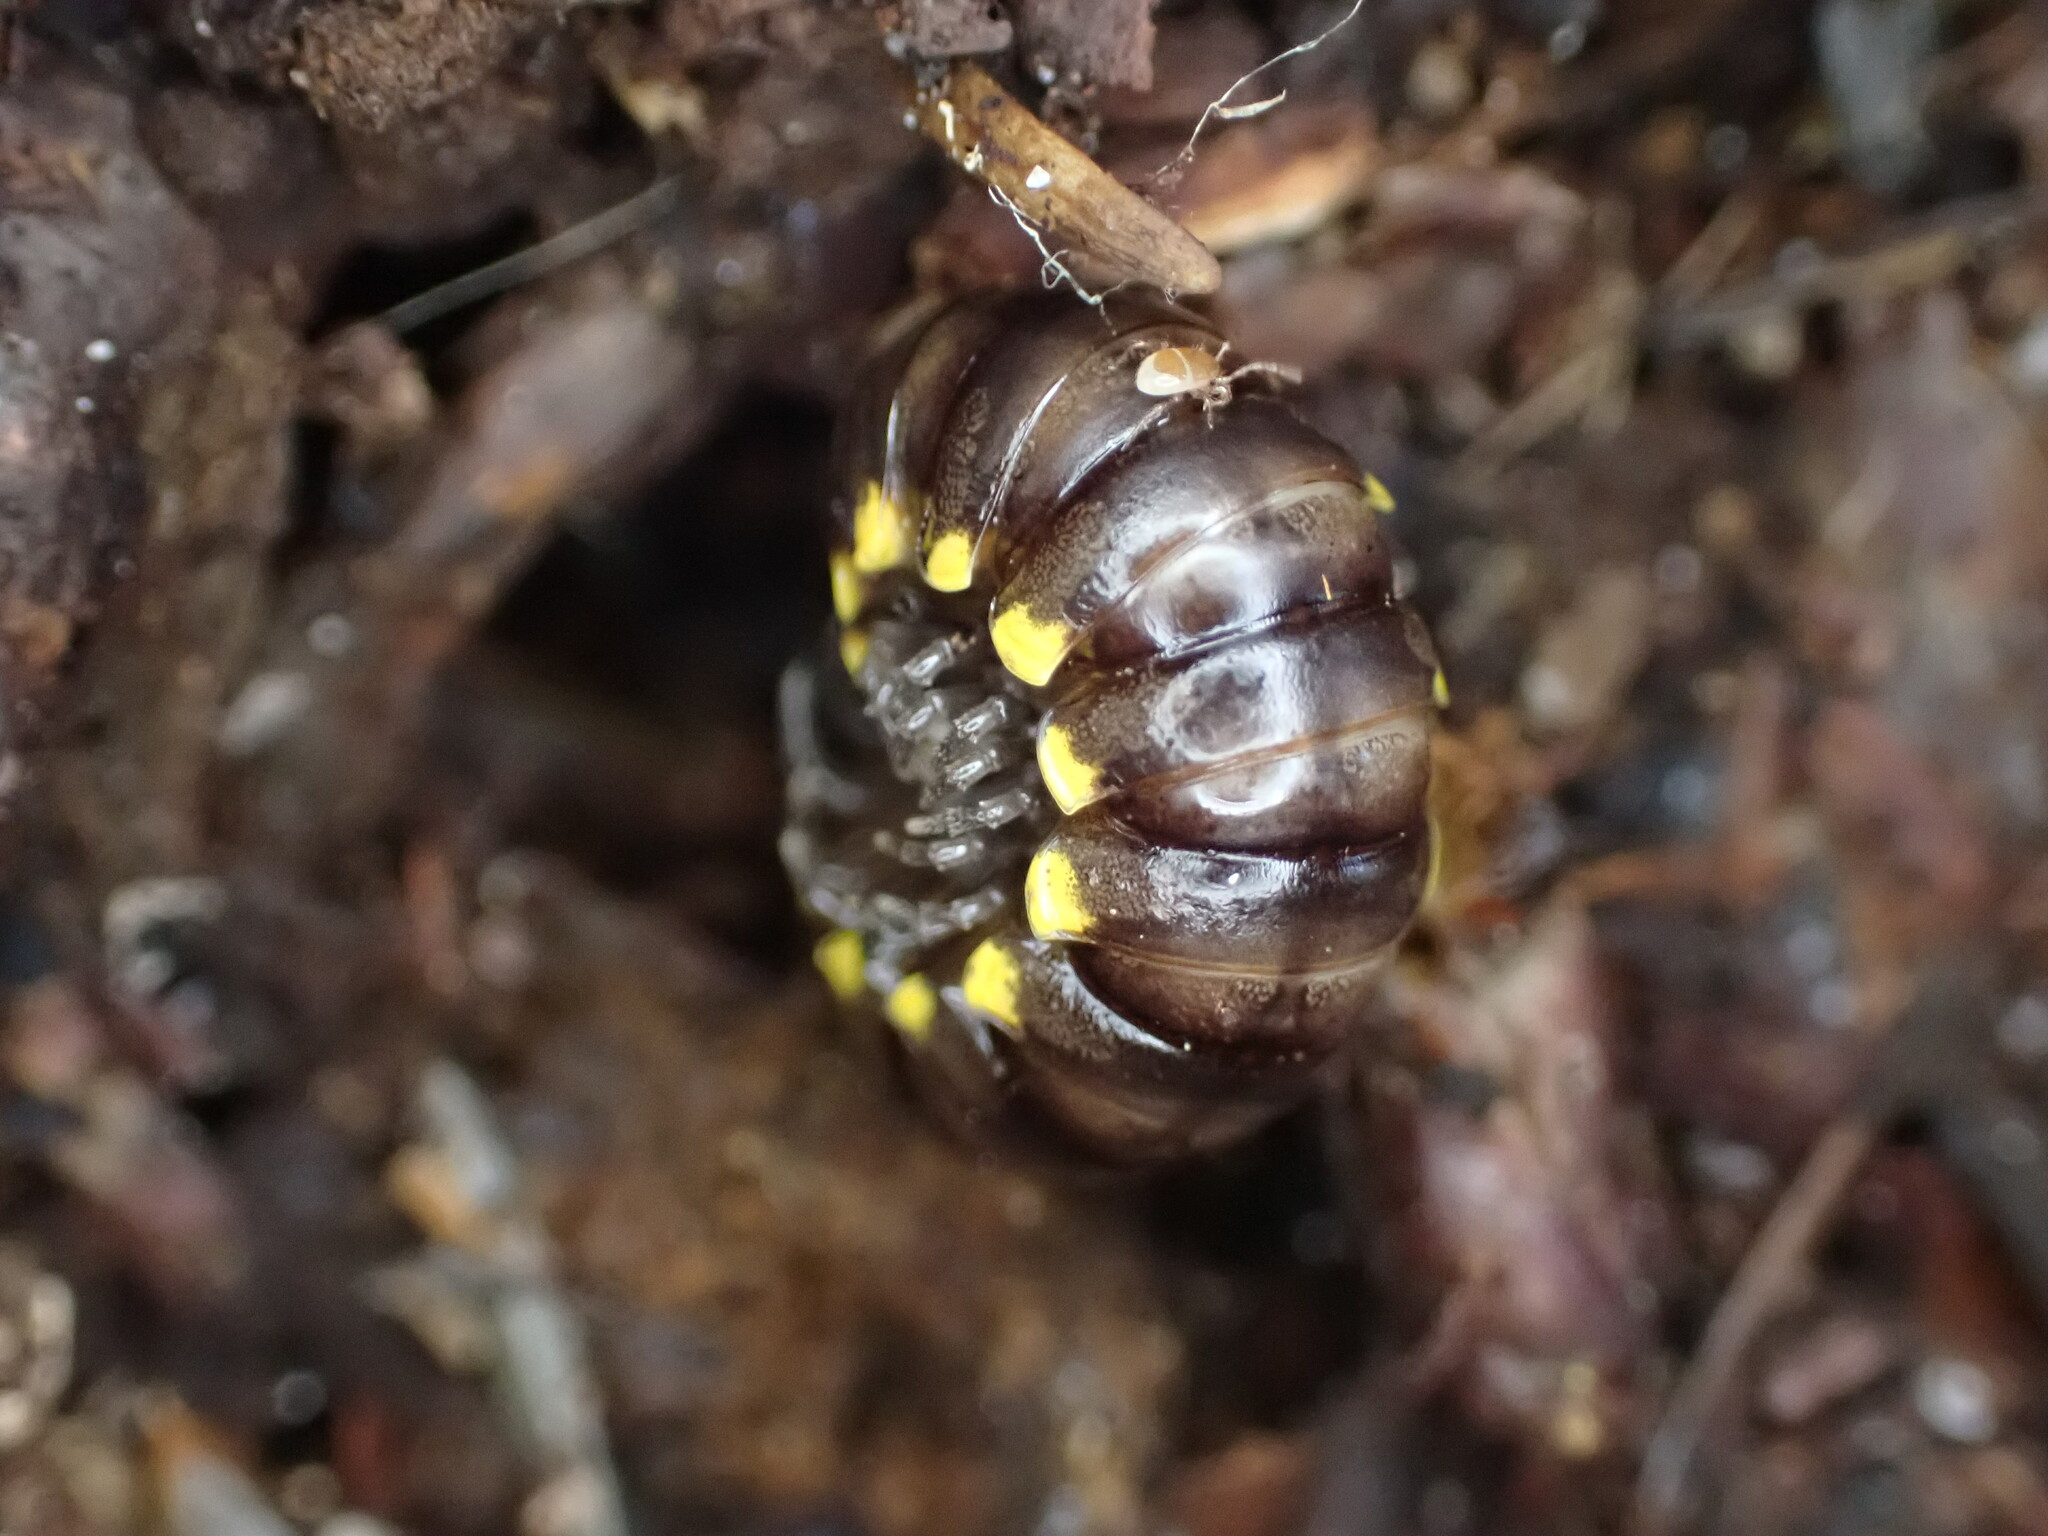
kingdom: Animalia
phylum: Arthropoda
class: Diplopoda
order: Polydesmida
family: Xystodesmidae
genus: Harpaphe
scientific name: Harpaphe haydeniana
